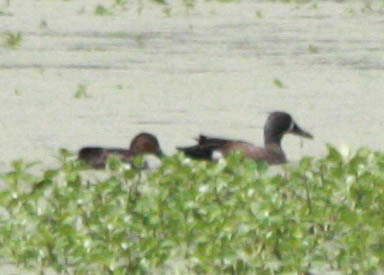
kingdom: Animalia
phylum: Chordata
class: Aves
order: Anseriformes
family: Anatidae
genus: Spatula
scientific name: Spatula discors
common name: Blue-winged teal
